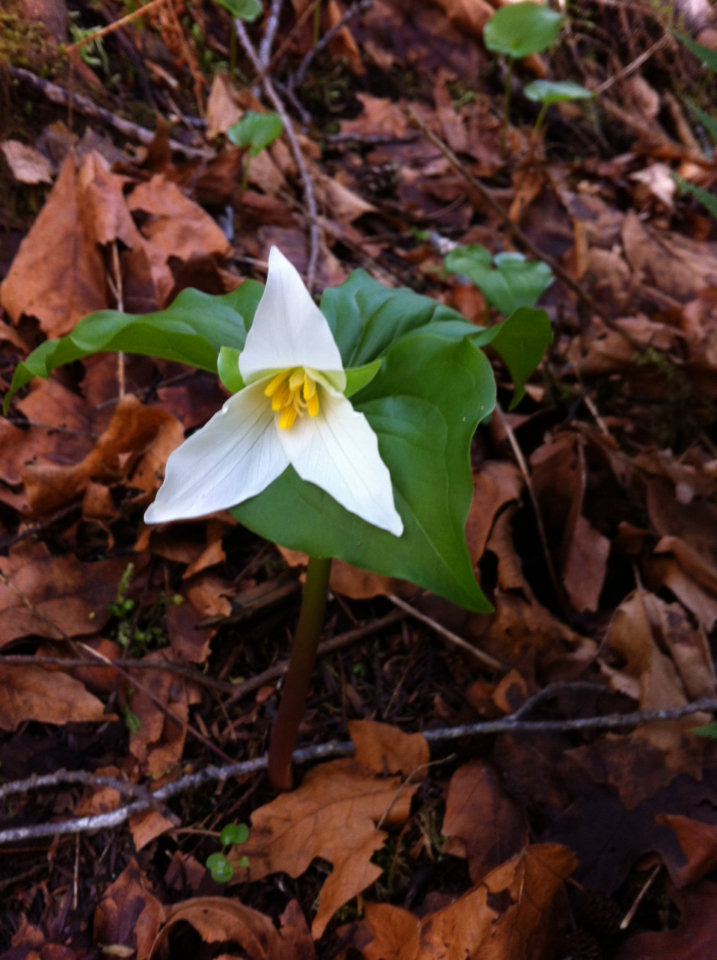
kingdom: Plantae
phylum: Tracheophyta
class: Liliopsida
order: Liliales
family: Melanthiaceae
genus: Trillium
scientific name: Trillium ovatum
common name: Pacific trillium
